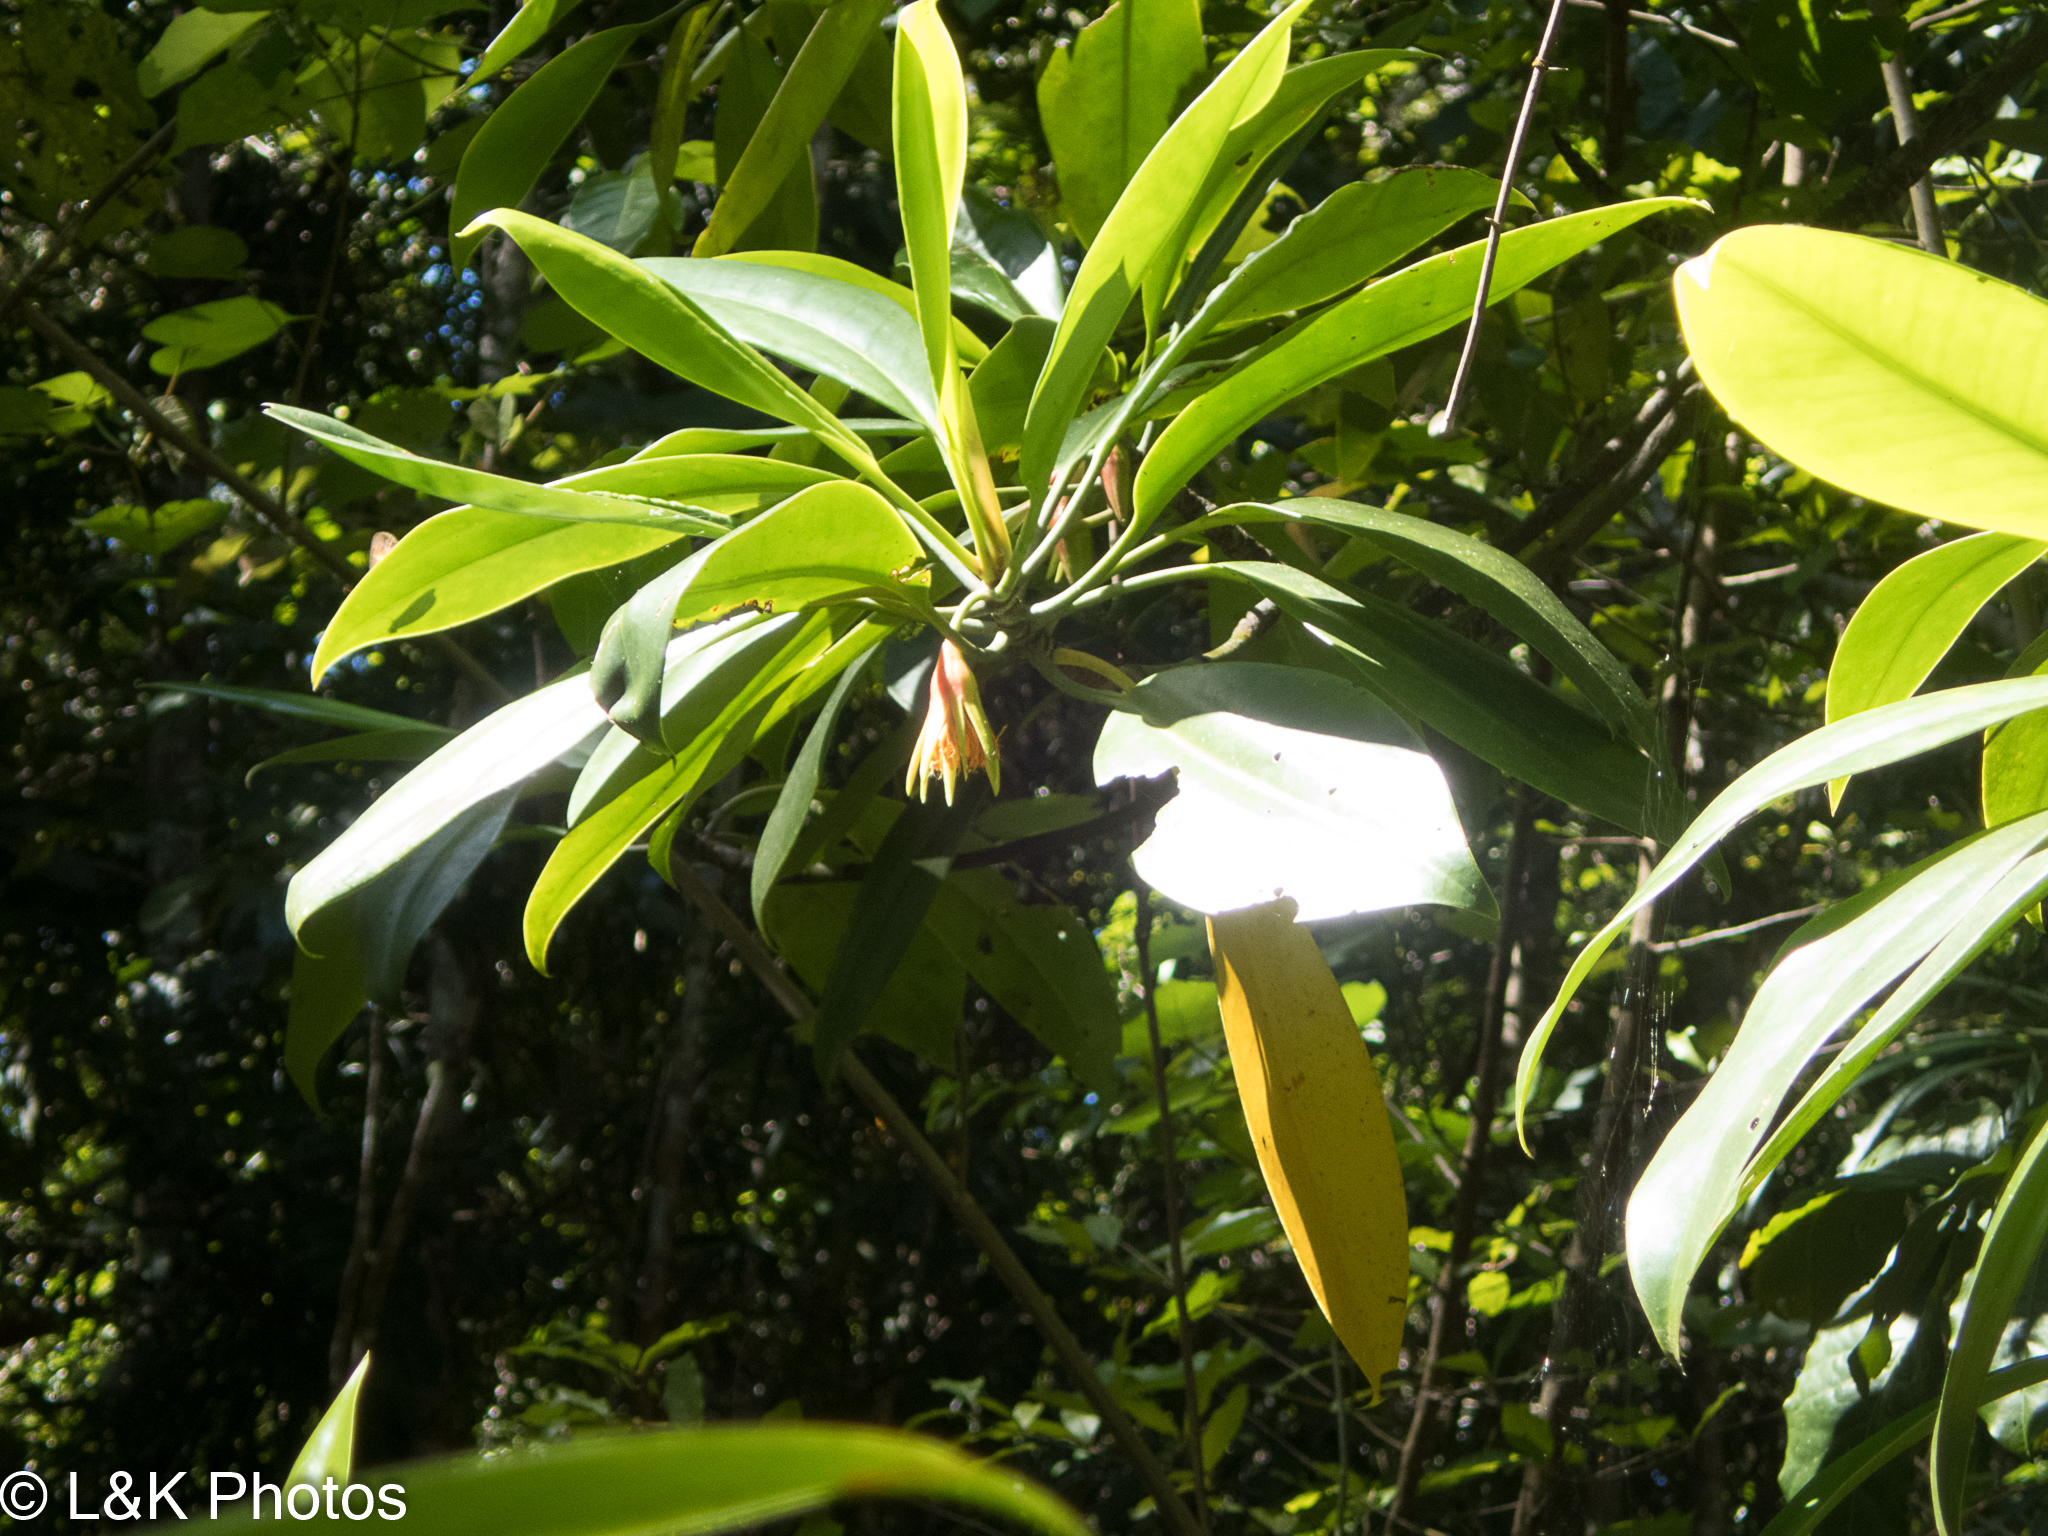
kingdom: Plantae
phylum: Tracheophyta
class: Magnoliopsida
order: Malpighiales
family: Rhizophoraceae
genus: Bruguiera
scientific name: Bruguiera gymnorhiza
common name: Oriental mangrove
